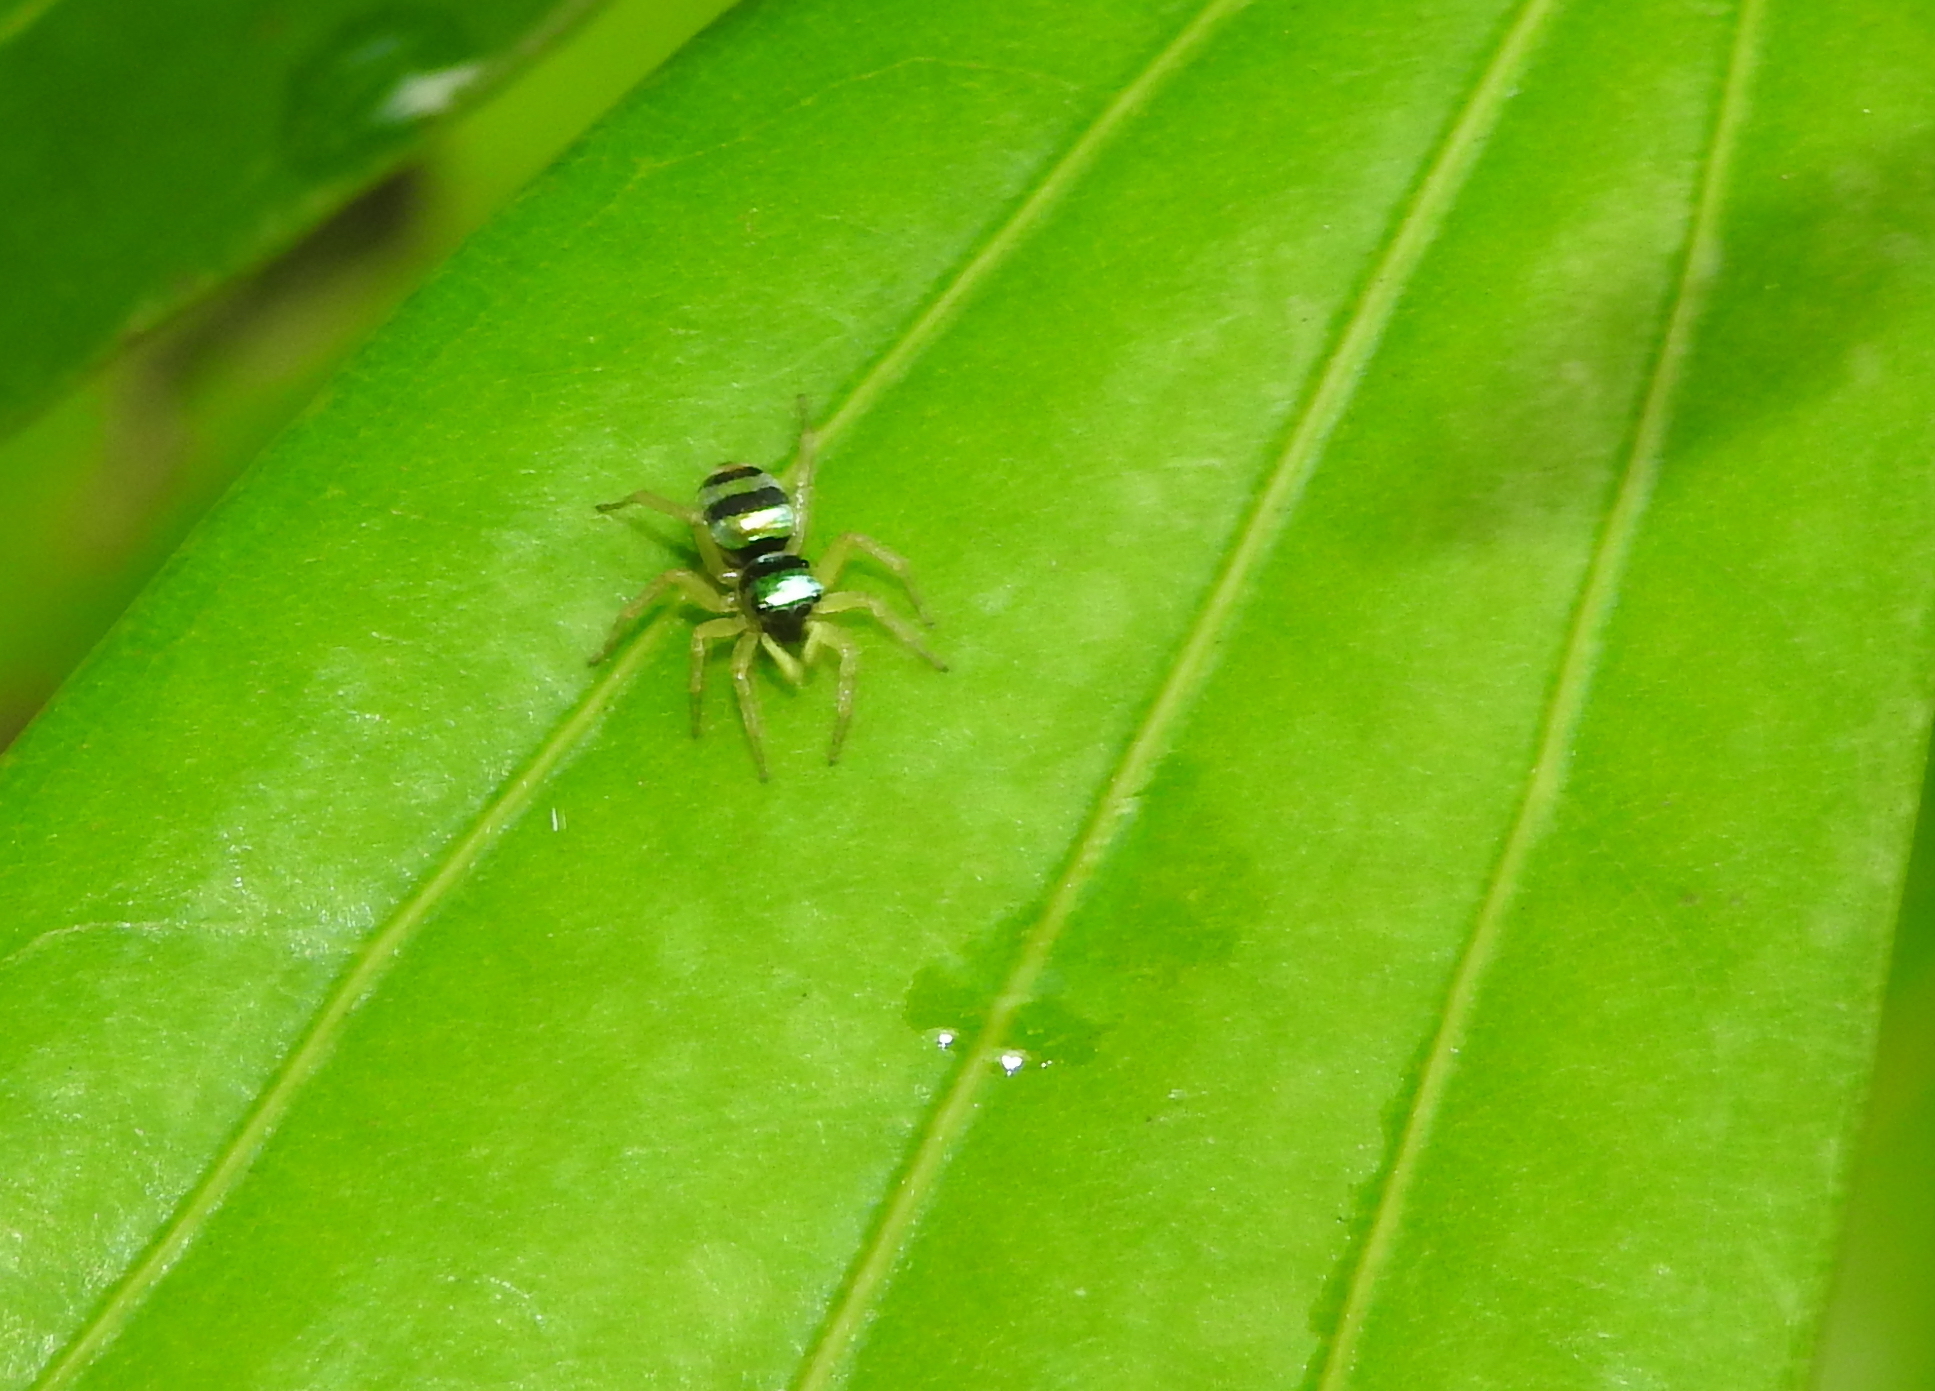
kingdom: Animalia
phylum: Arthropoda
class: Arachnida
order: Araneae
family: Salticidae
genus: Phintella
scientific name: Phintella vittata
